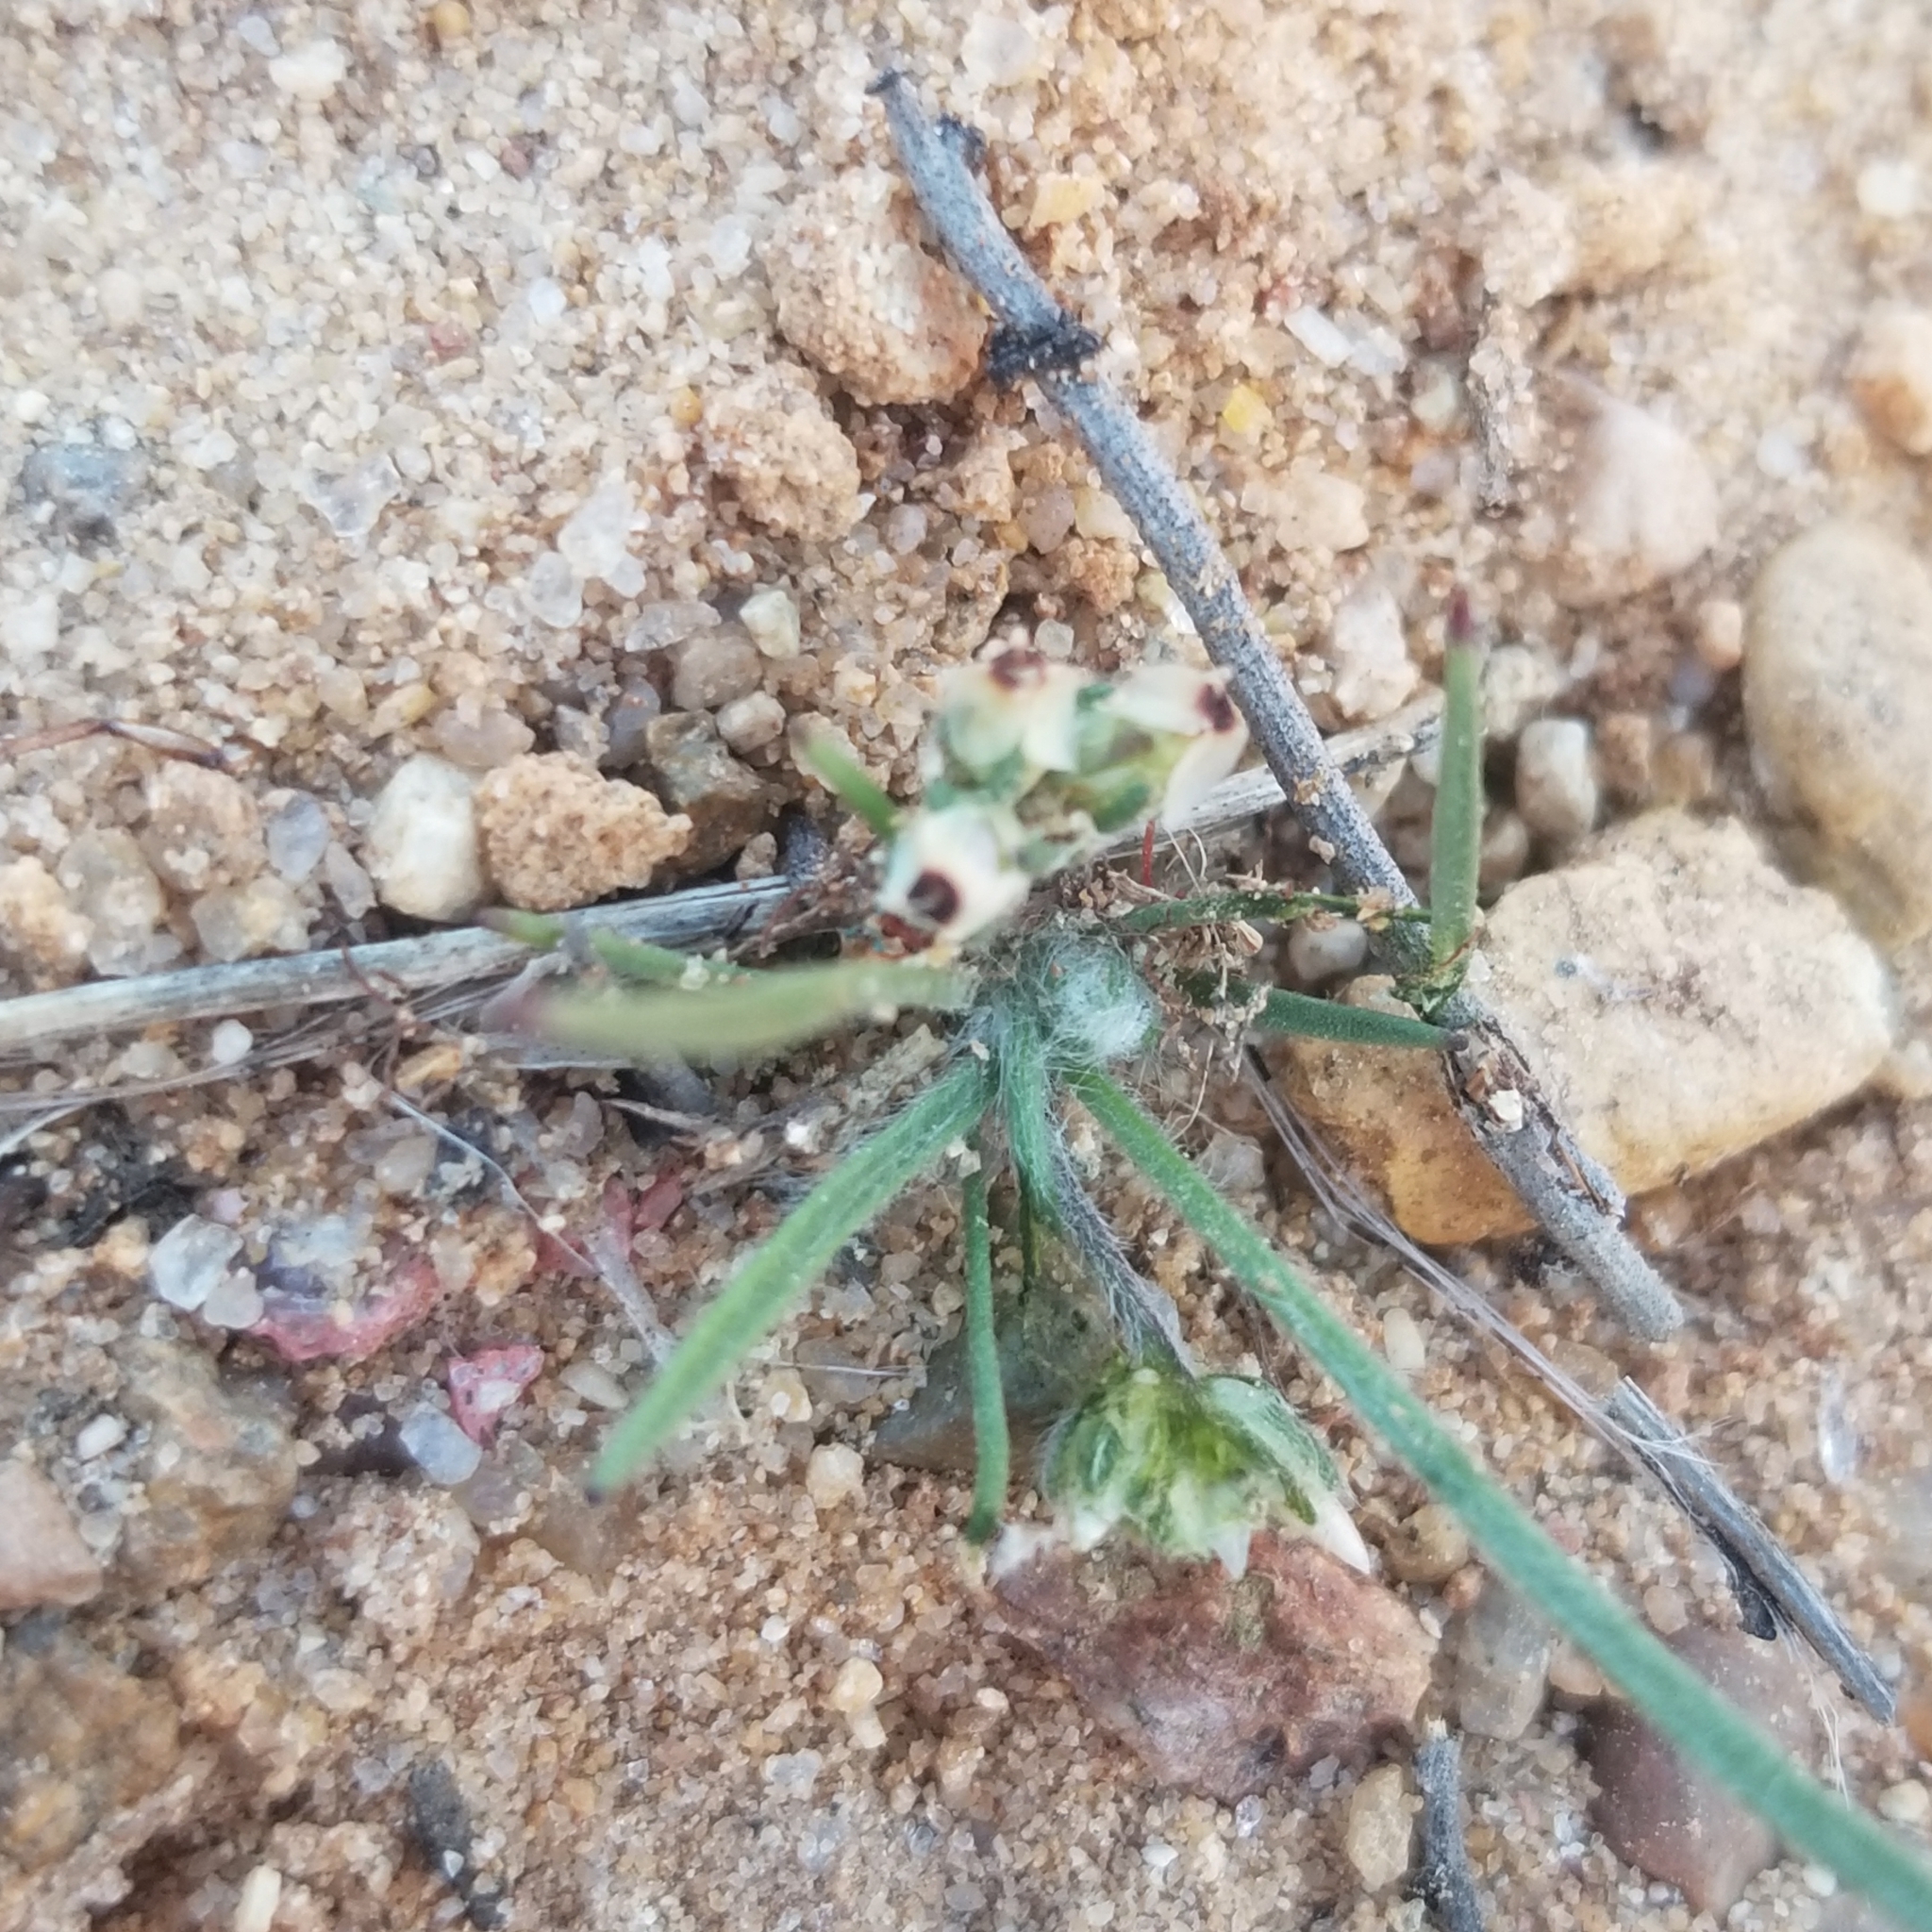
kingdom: Plantae
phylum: Tracheophyta
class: Magnoliopsida
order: Lamiales
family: Plantaginaceae
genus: Plantago
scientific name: Plantago erecta
